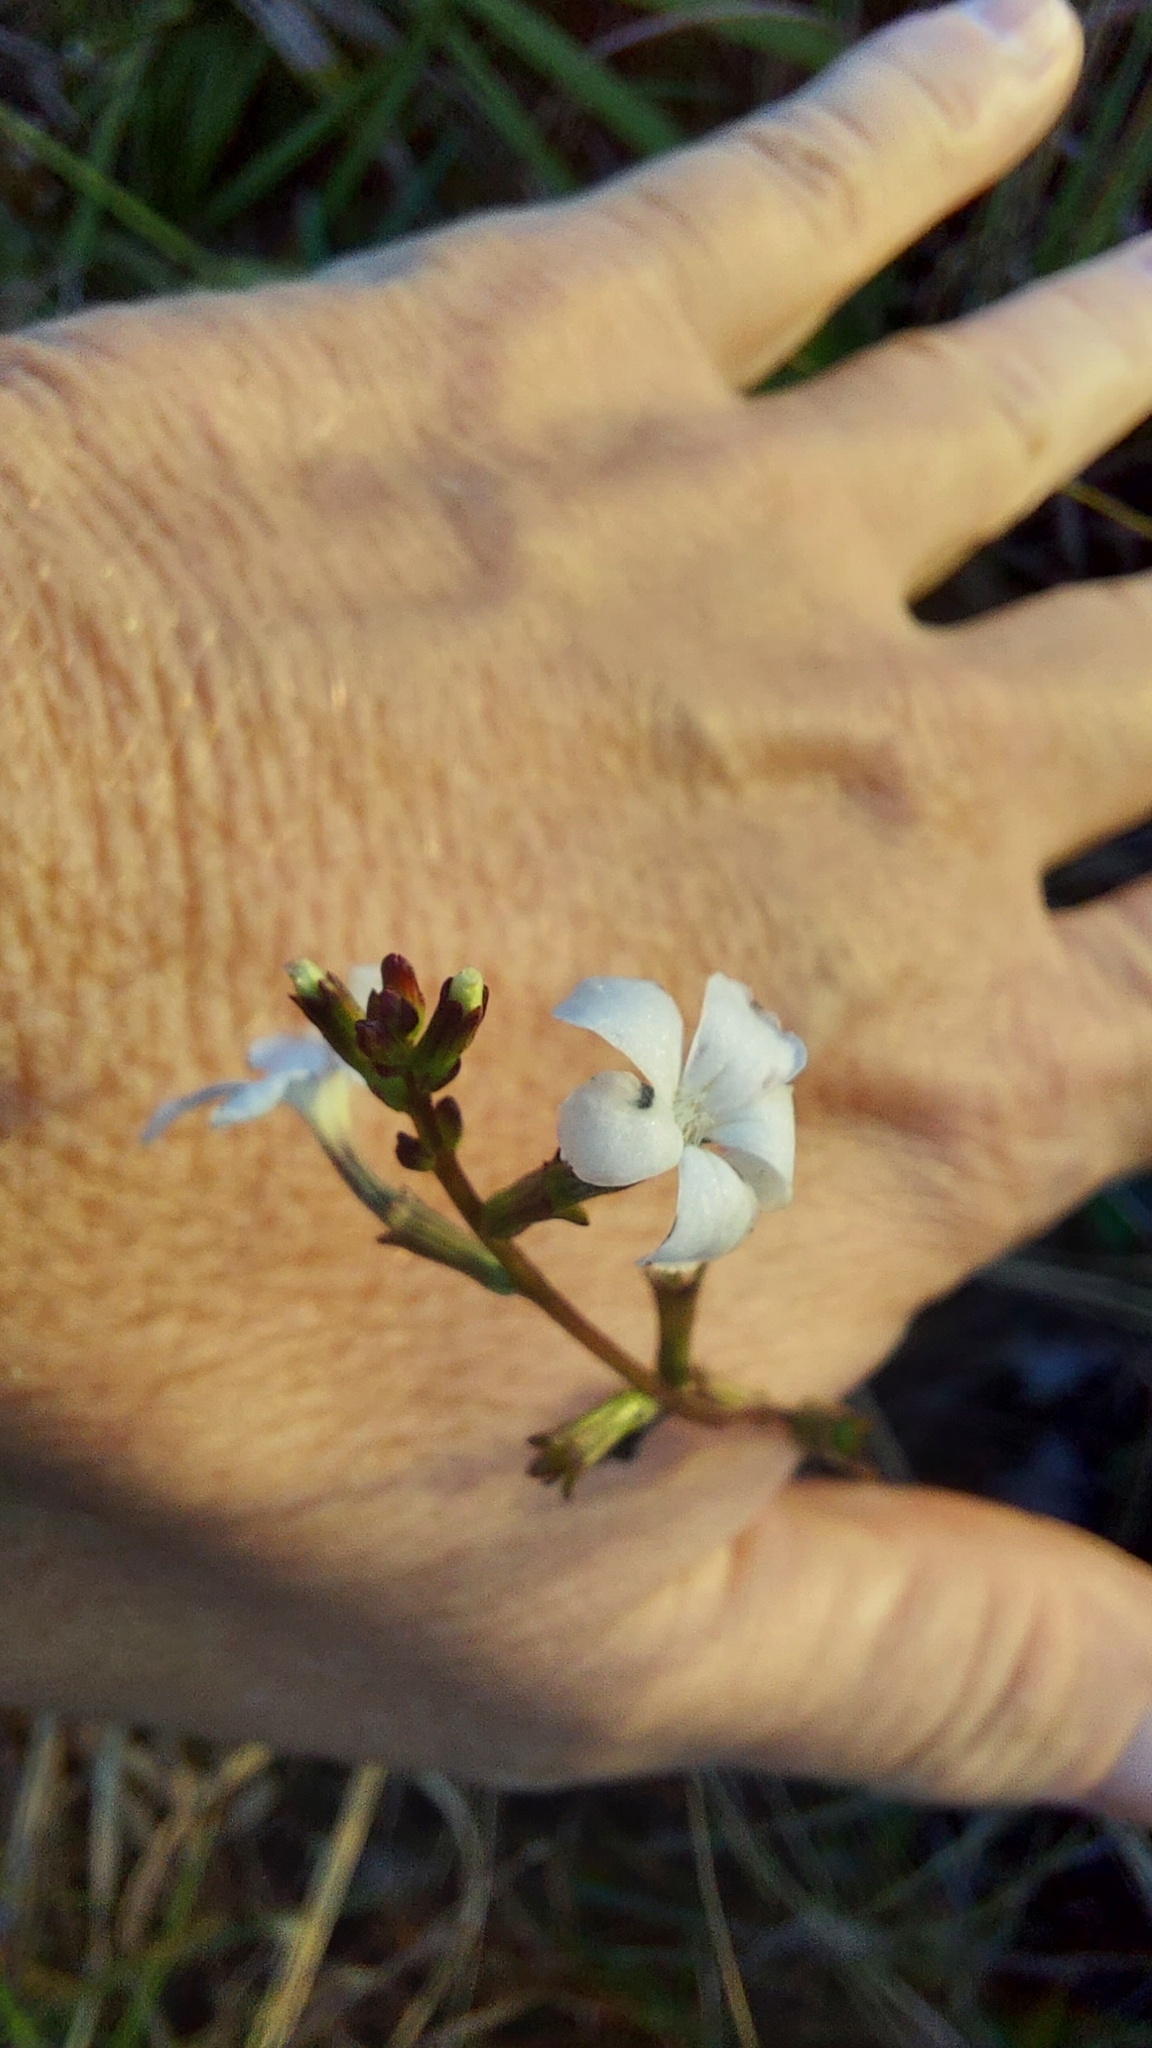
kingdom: Plantae
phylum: Tracheophyta
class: Magnoliopsida
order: Lamiales
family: Orobanchaceae
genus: Buchnera
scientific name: Buchnera floridana
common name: Florida bluehearts
